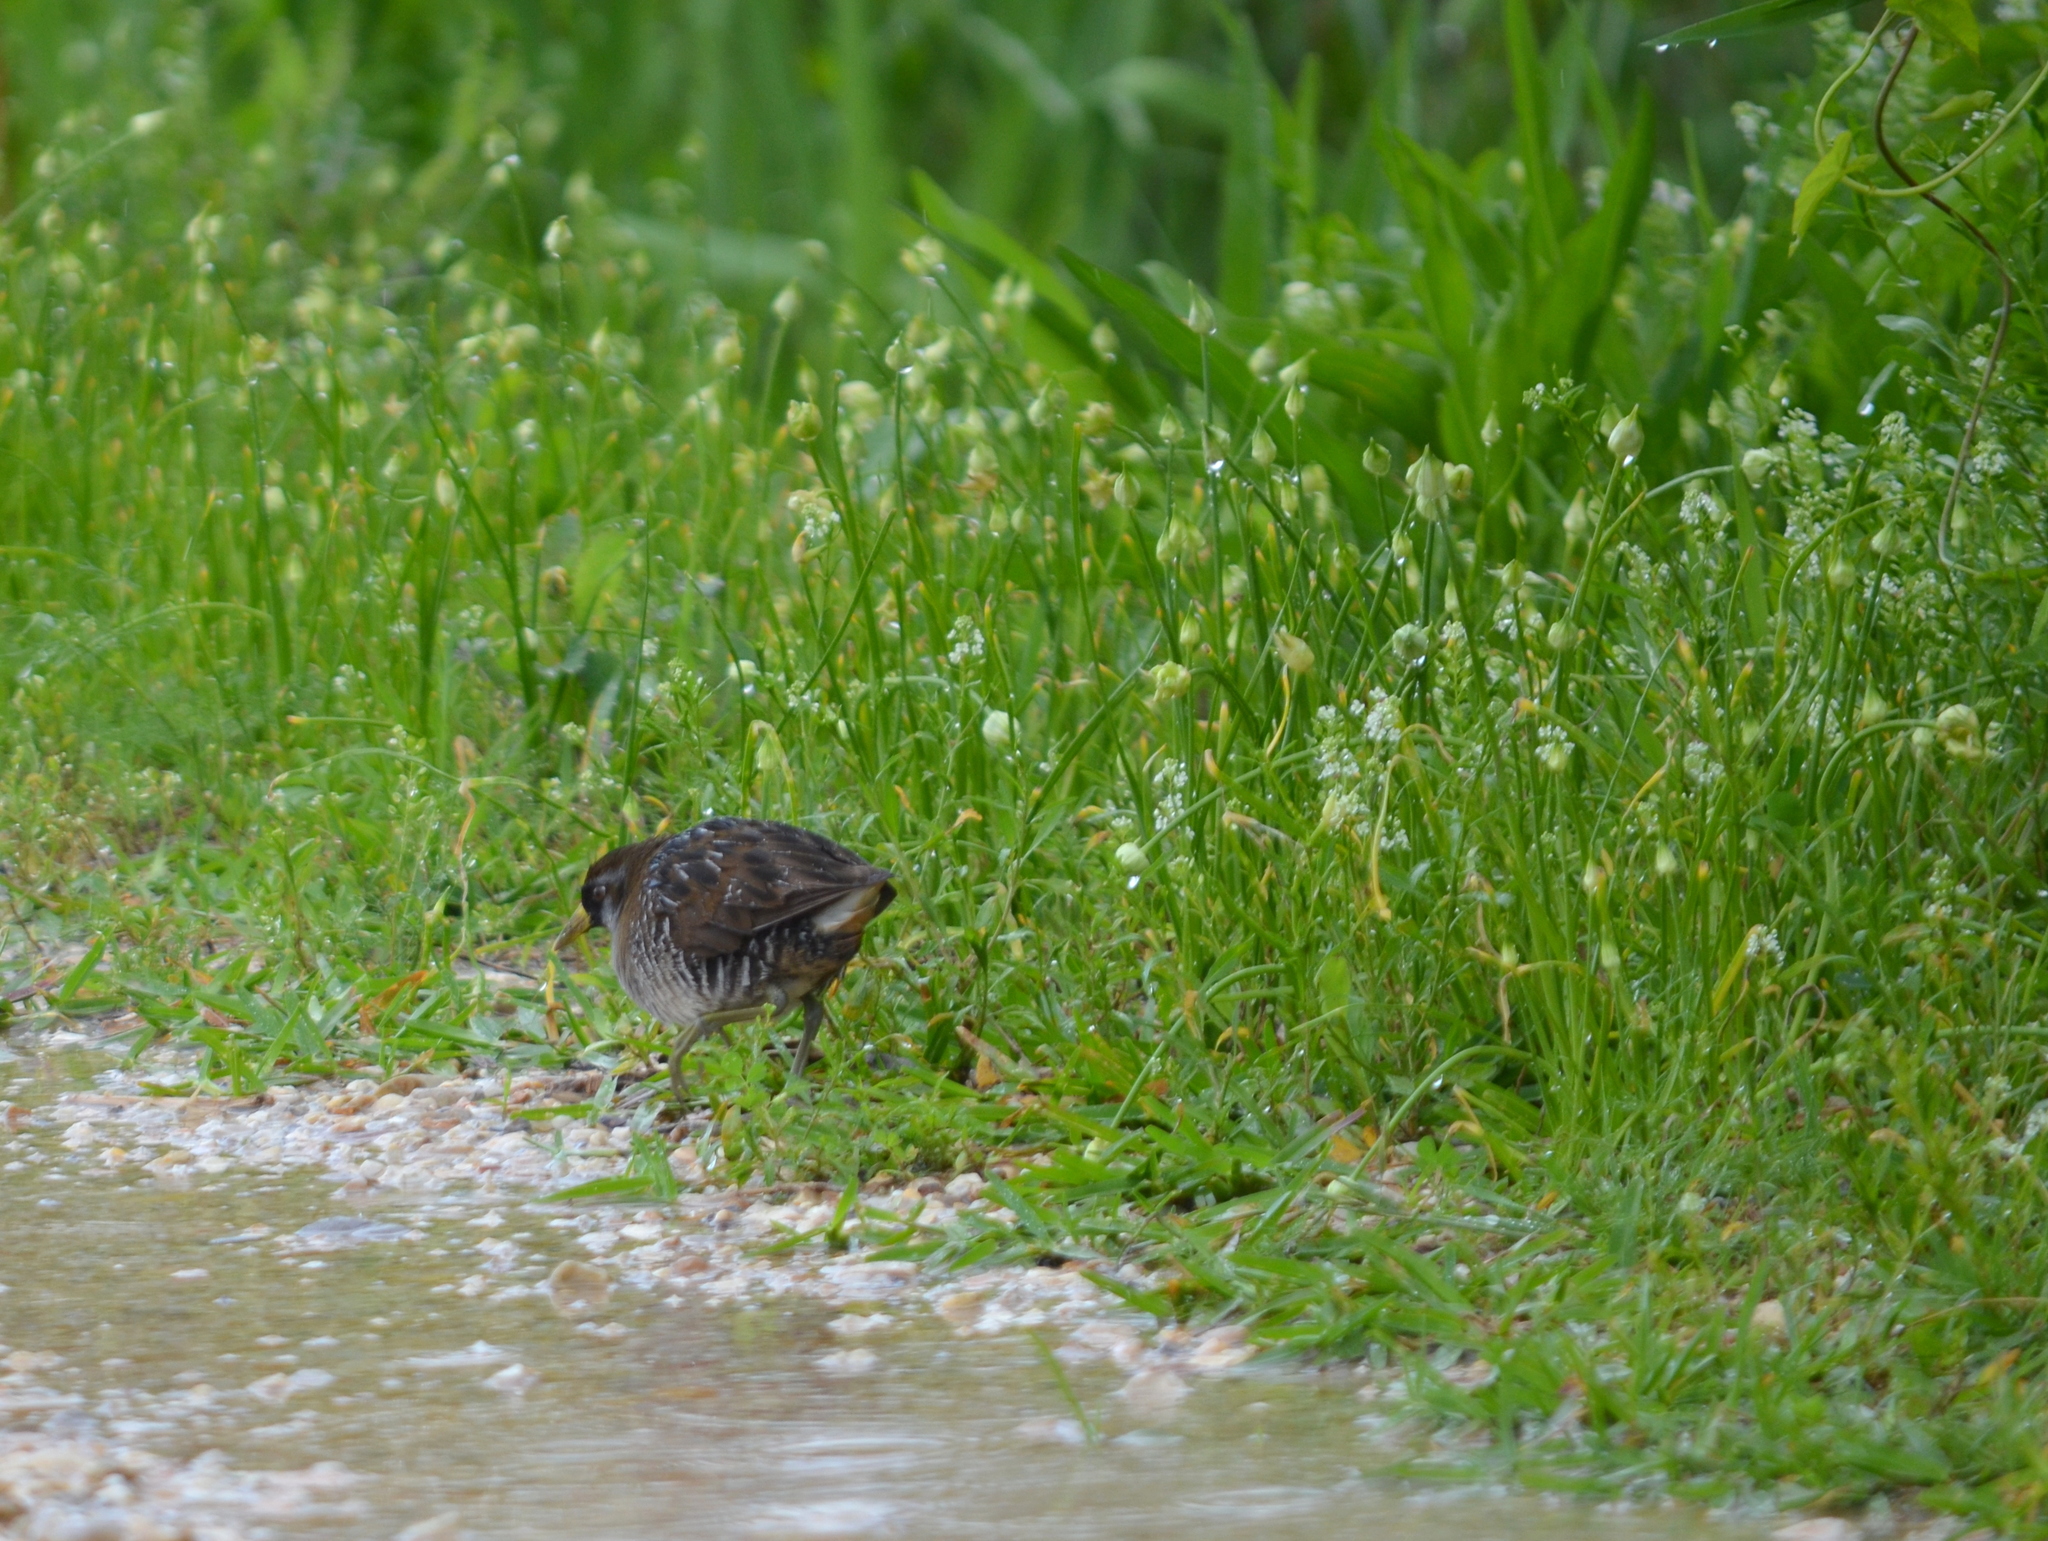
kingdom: Animalia
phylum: Chordata
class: Aves
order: Gruiformes
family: Rallidae
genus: Porzana
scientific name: Porzana carolina
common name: Sora
